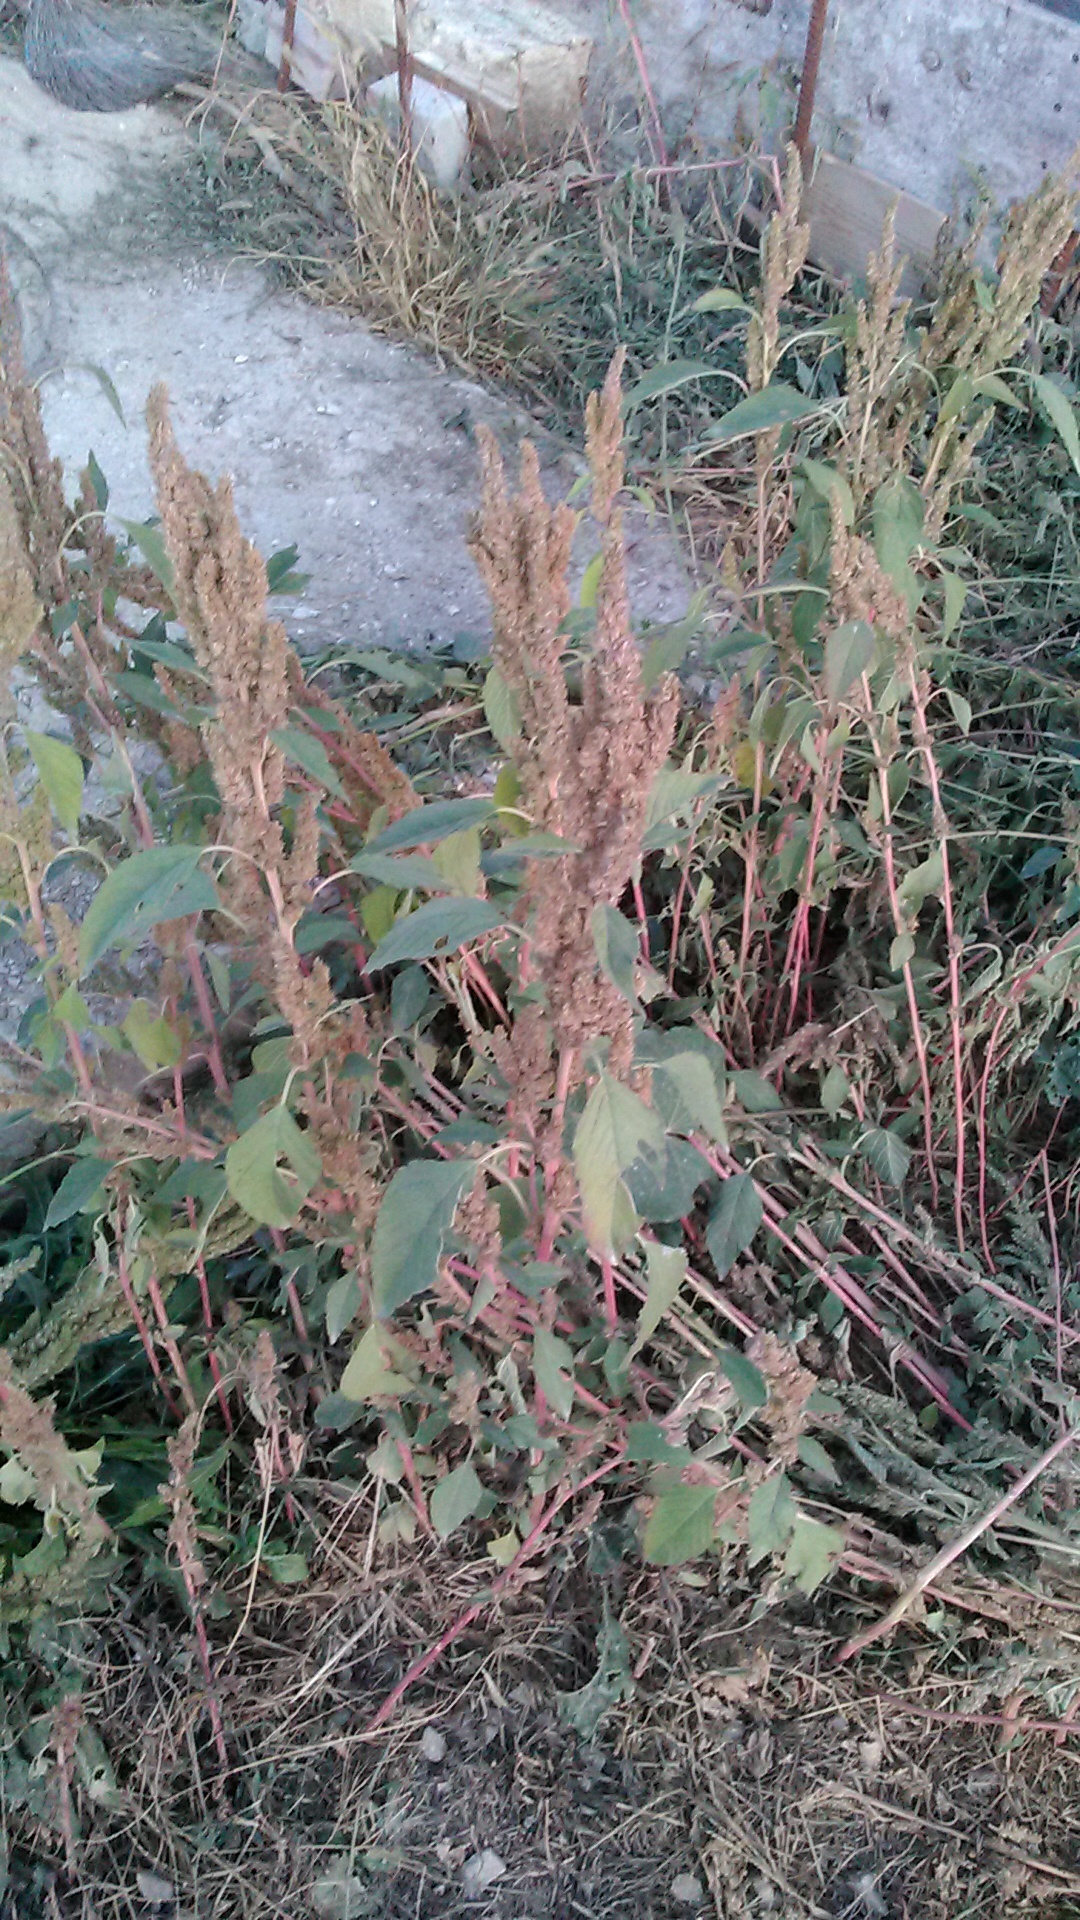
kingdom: Plantae
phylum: Tracheophyta
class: Magnoliopsida
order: Caryophyllales
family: Amaranthaceae
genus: Amaranthus
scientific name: Amaranthus retroflexus
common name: Redroot amaranth
